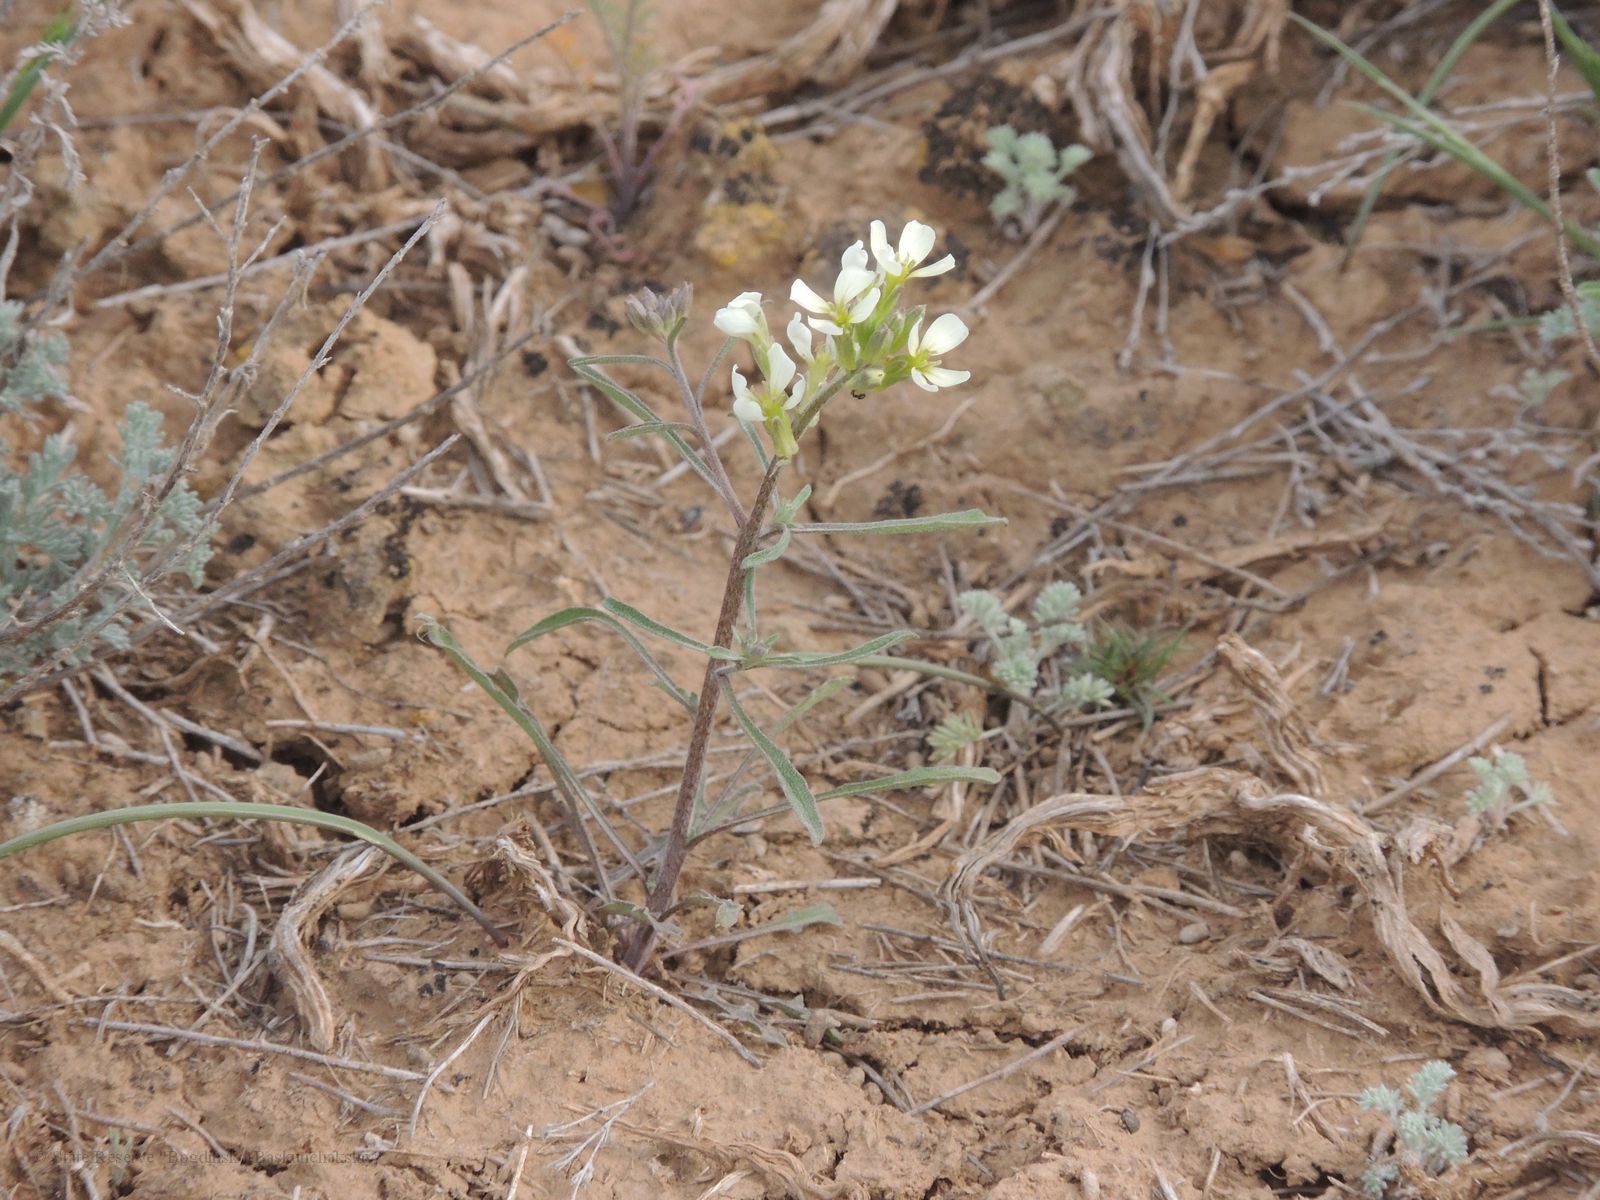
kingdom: Plantae
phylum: Tracheophyta
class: Magnoliopsida
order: Brassicales
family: Brassicaceae
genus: Erysimum
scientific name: Erysimum leucanthemum
